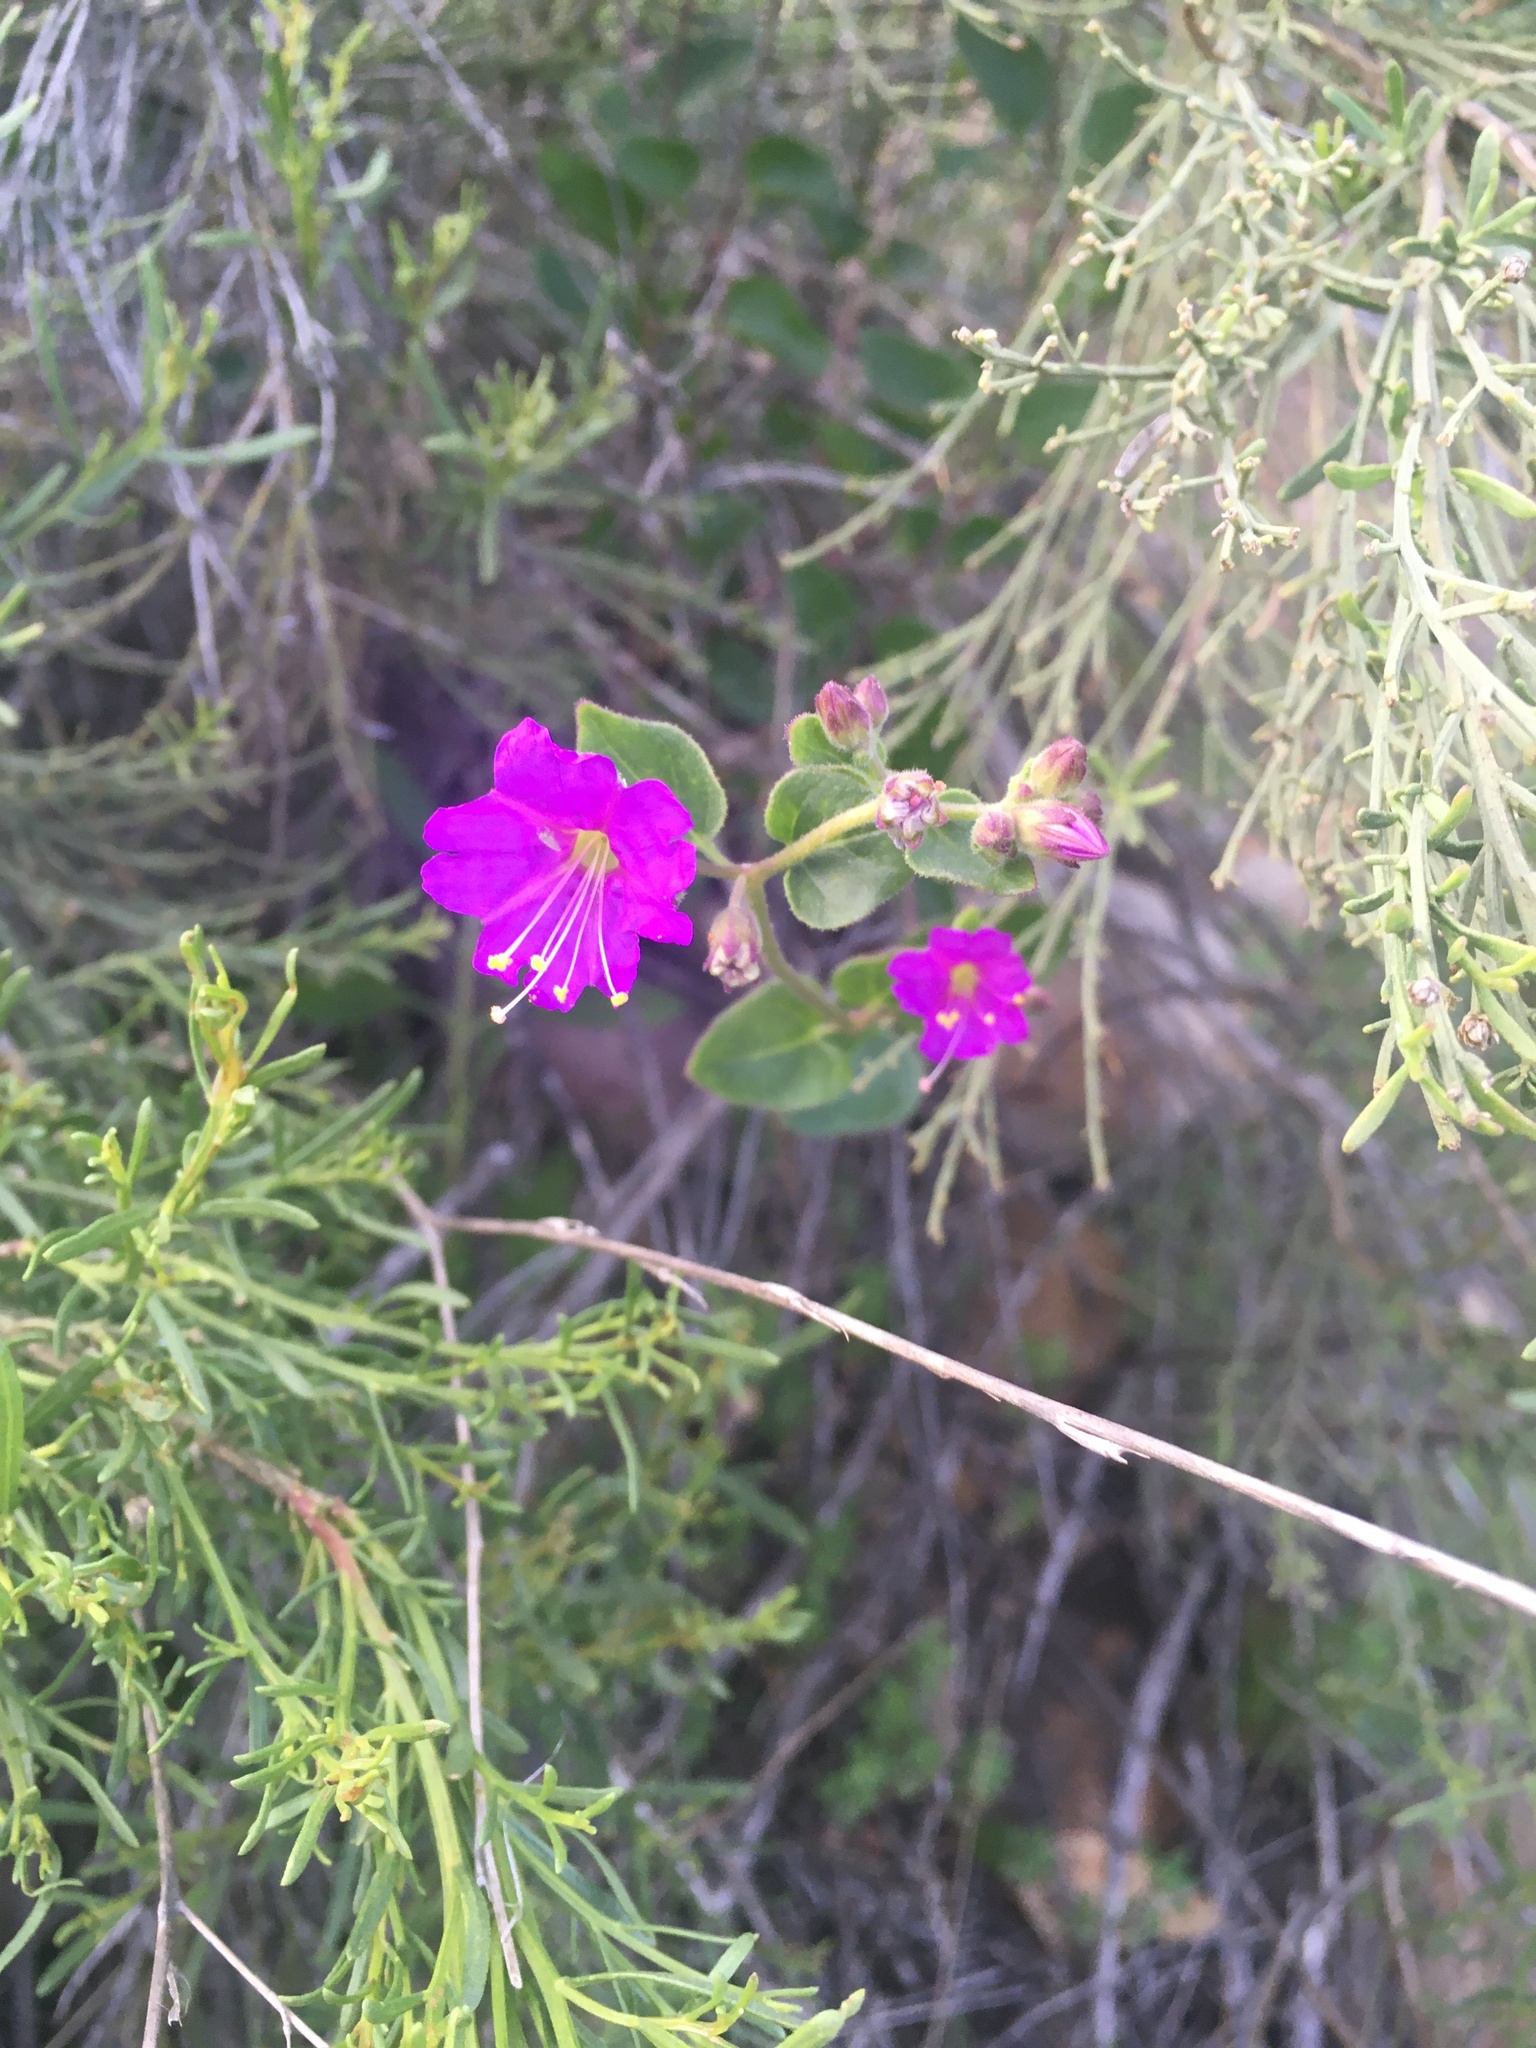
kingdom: Plantae
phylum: Tracheophyta
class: Magnoliopsida
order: Caryophyllales
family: Nyctaginaceae
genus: Mirabilis
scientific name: Mirabilis laevis
